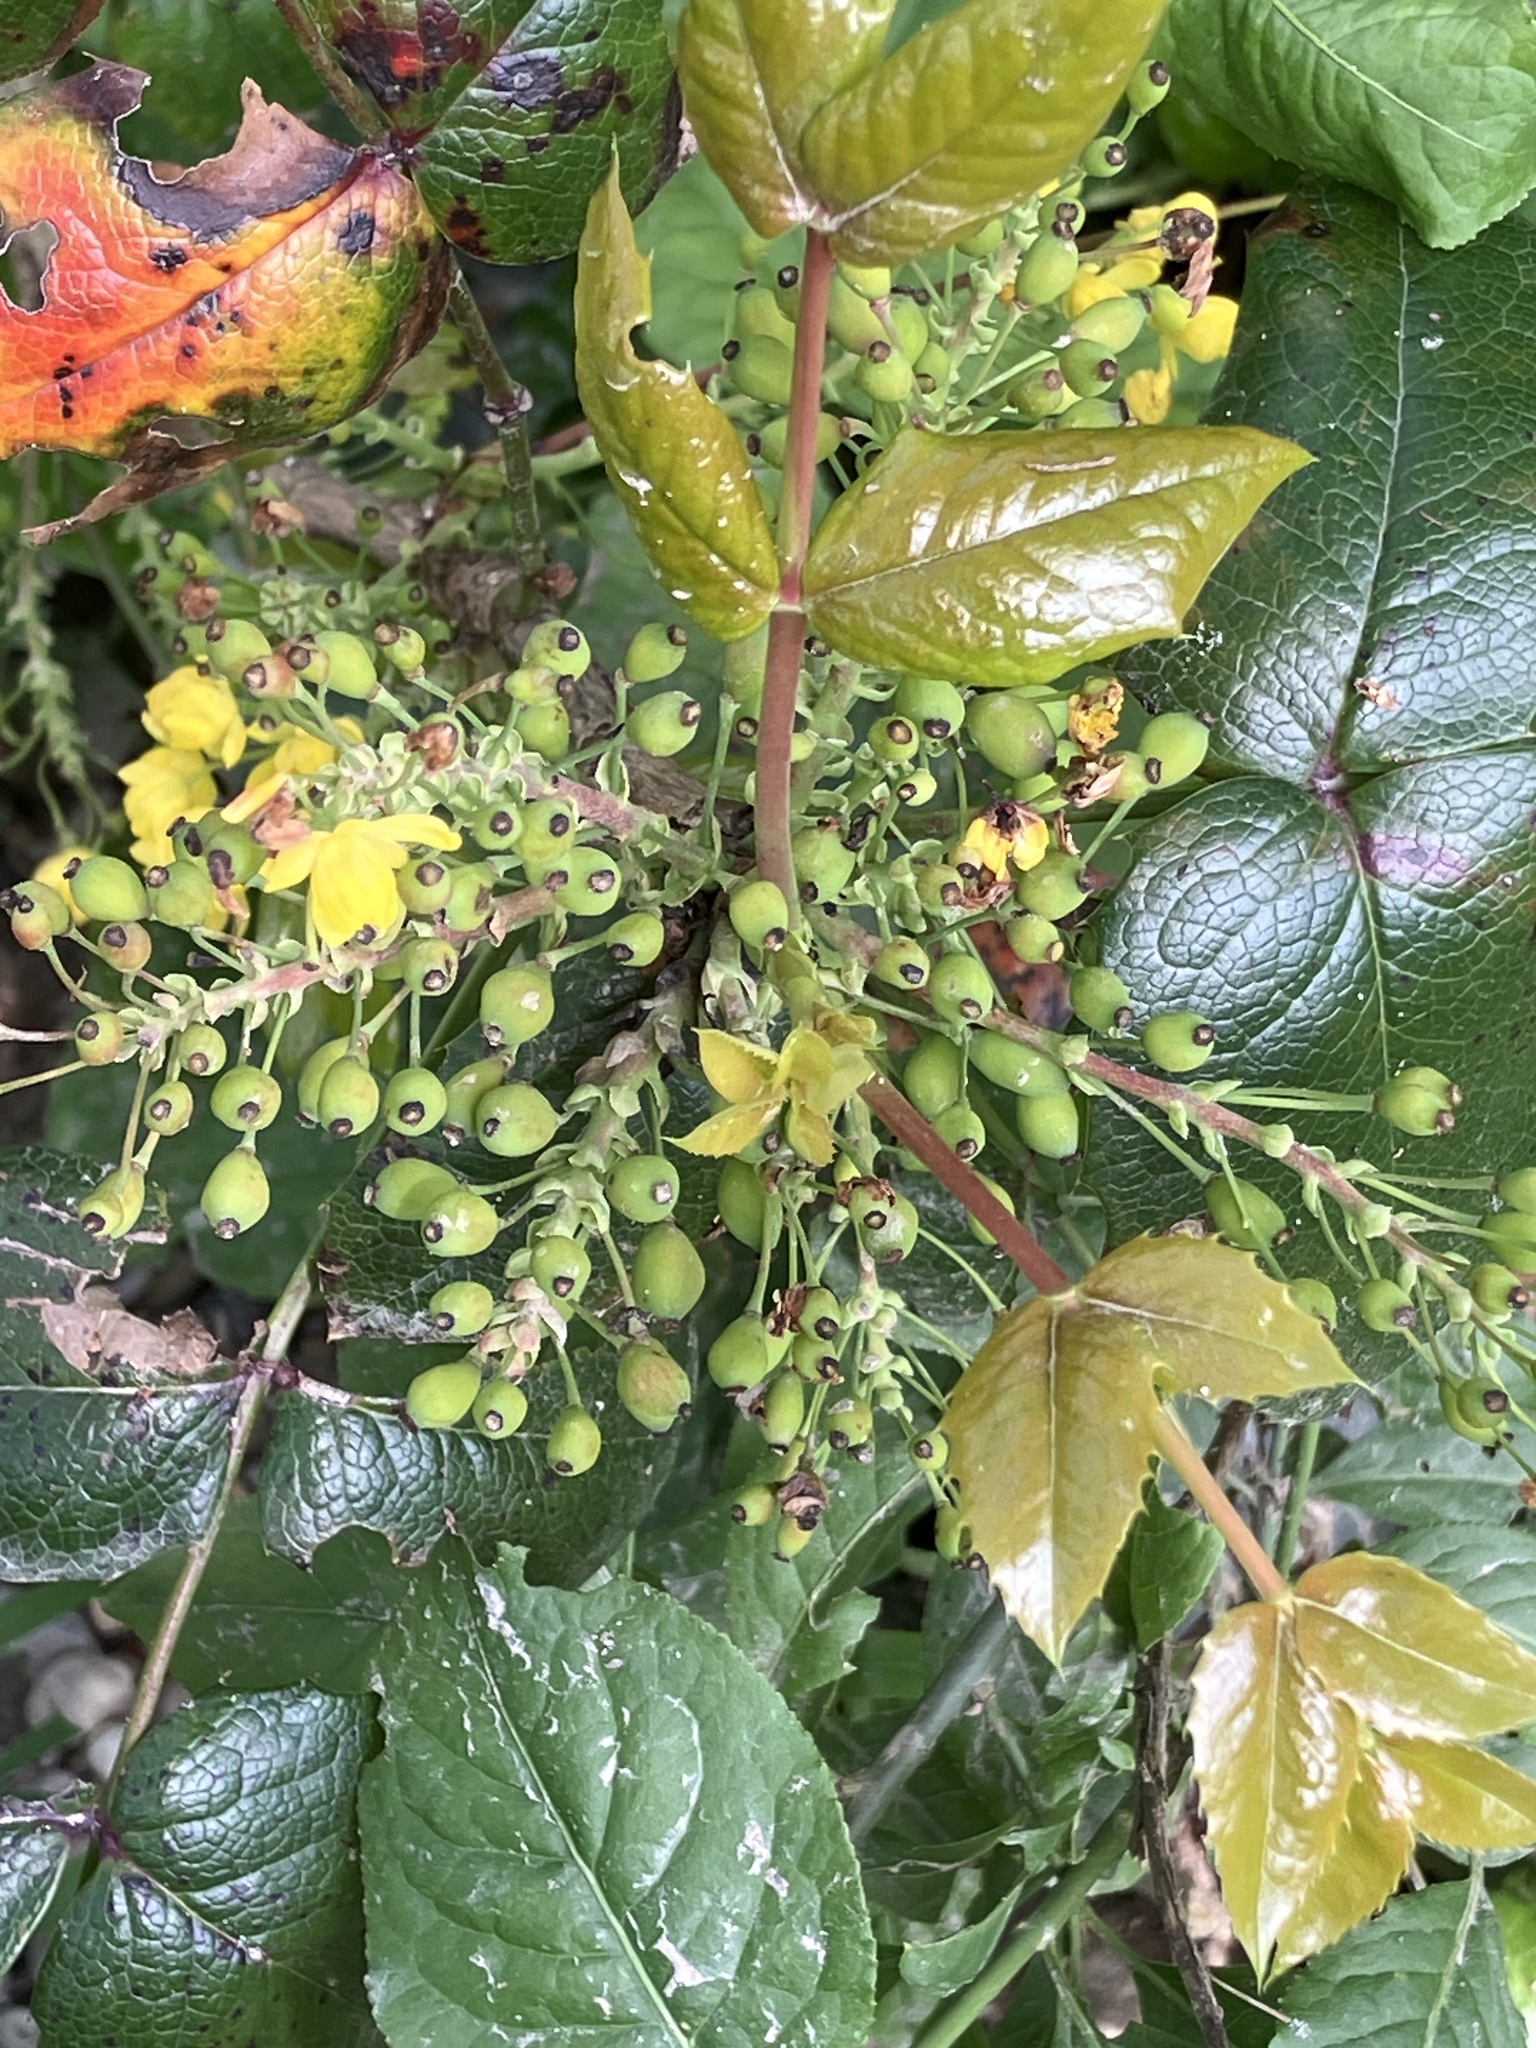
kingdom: Plantae
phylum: Tracheophyta
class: Magnoliopsida
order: Ranunculales
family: Berberidaceae
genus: Mahonia
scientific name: Mahonia aquifolium
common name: Oregon-grape
